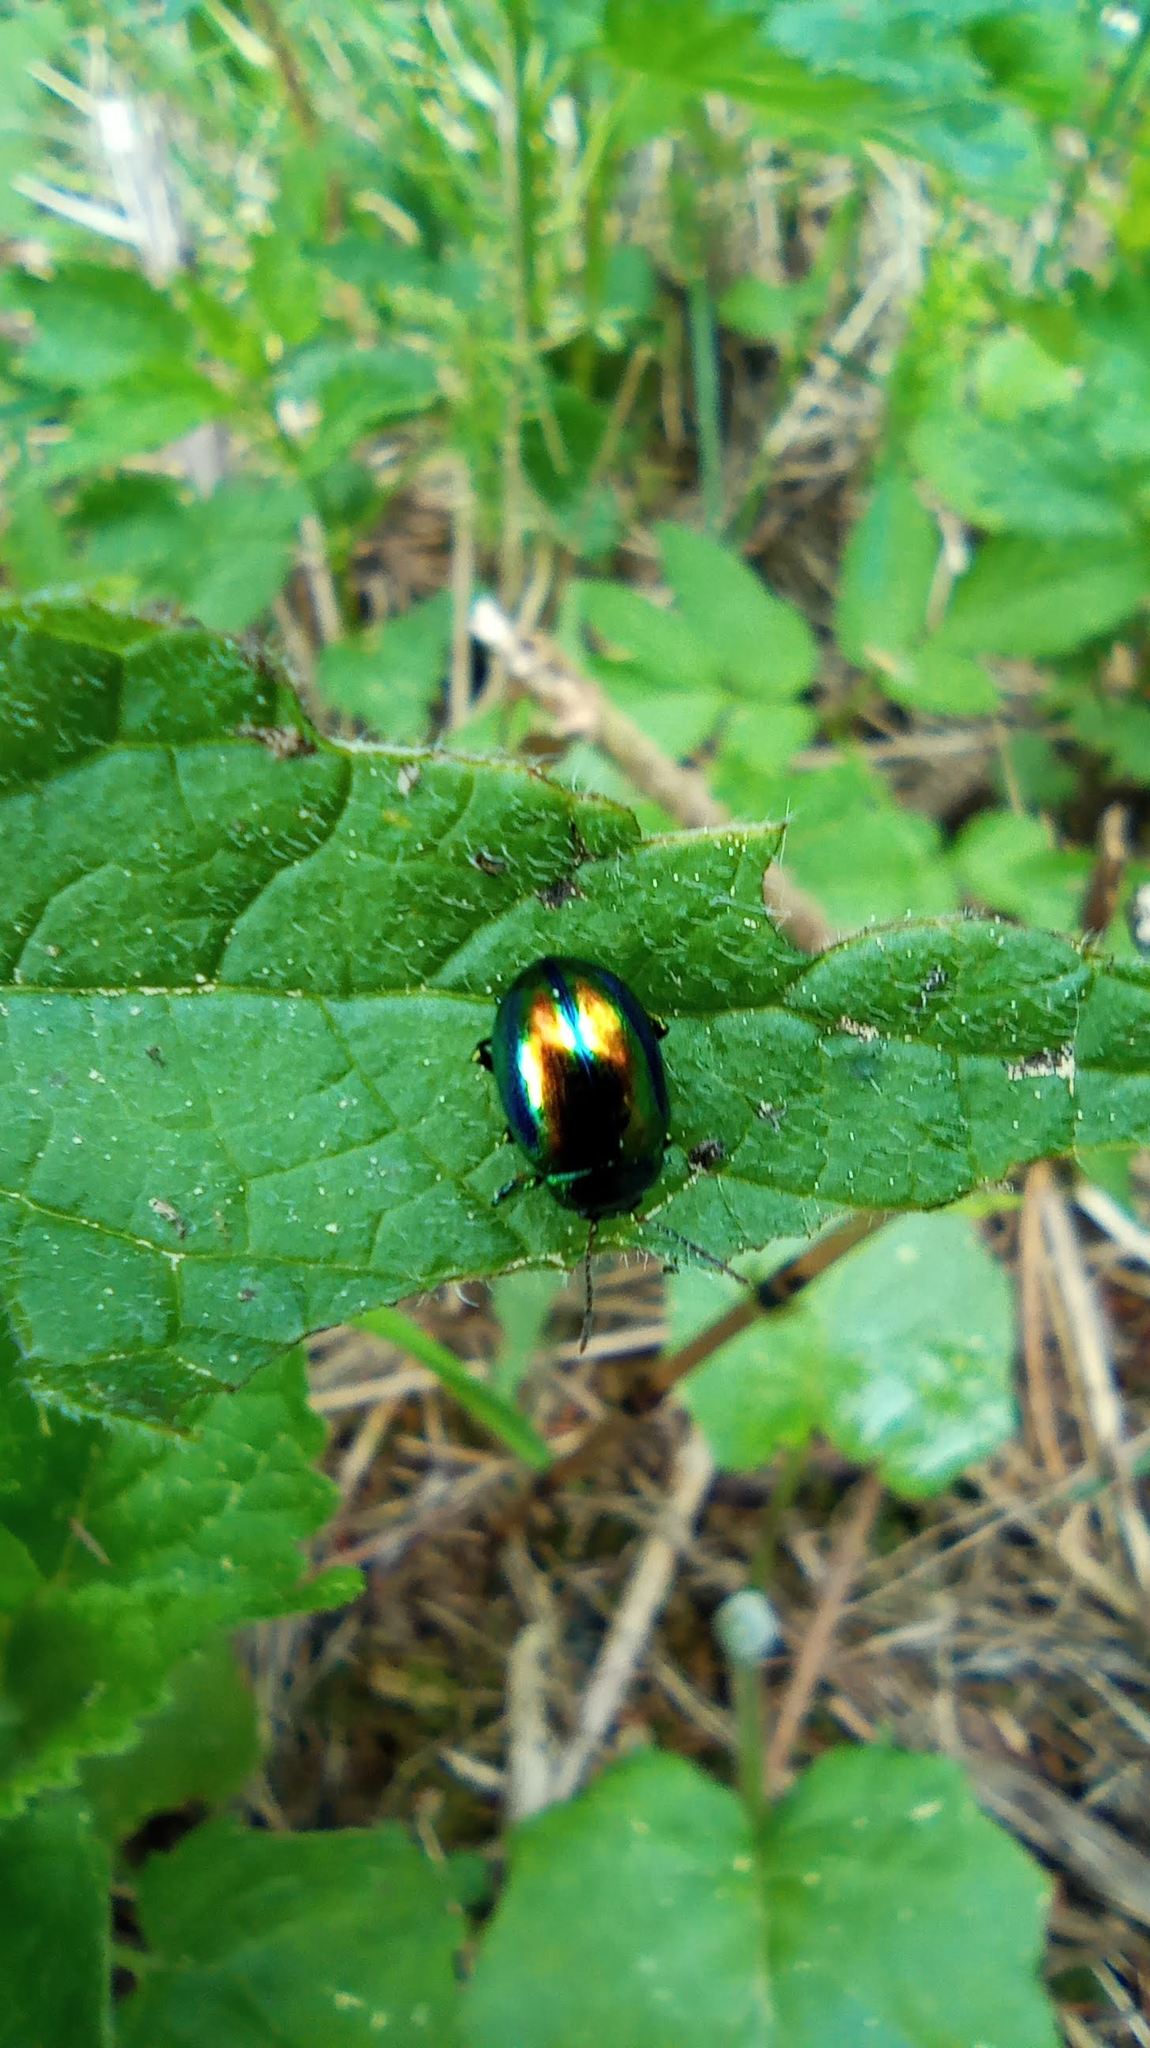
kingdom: Animalia
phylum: Arthropoda
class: Insecta
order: Coleoptera
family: Chrysomelidae
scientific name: Chrysomelidae
